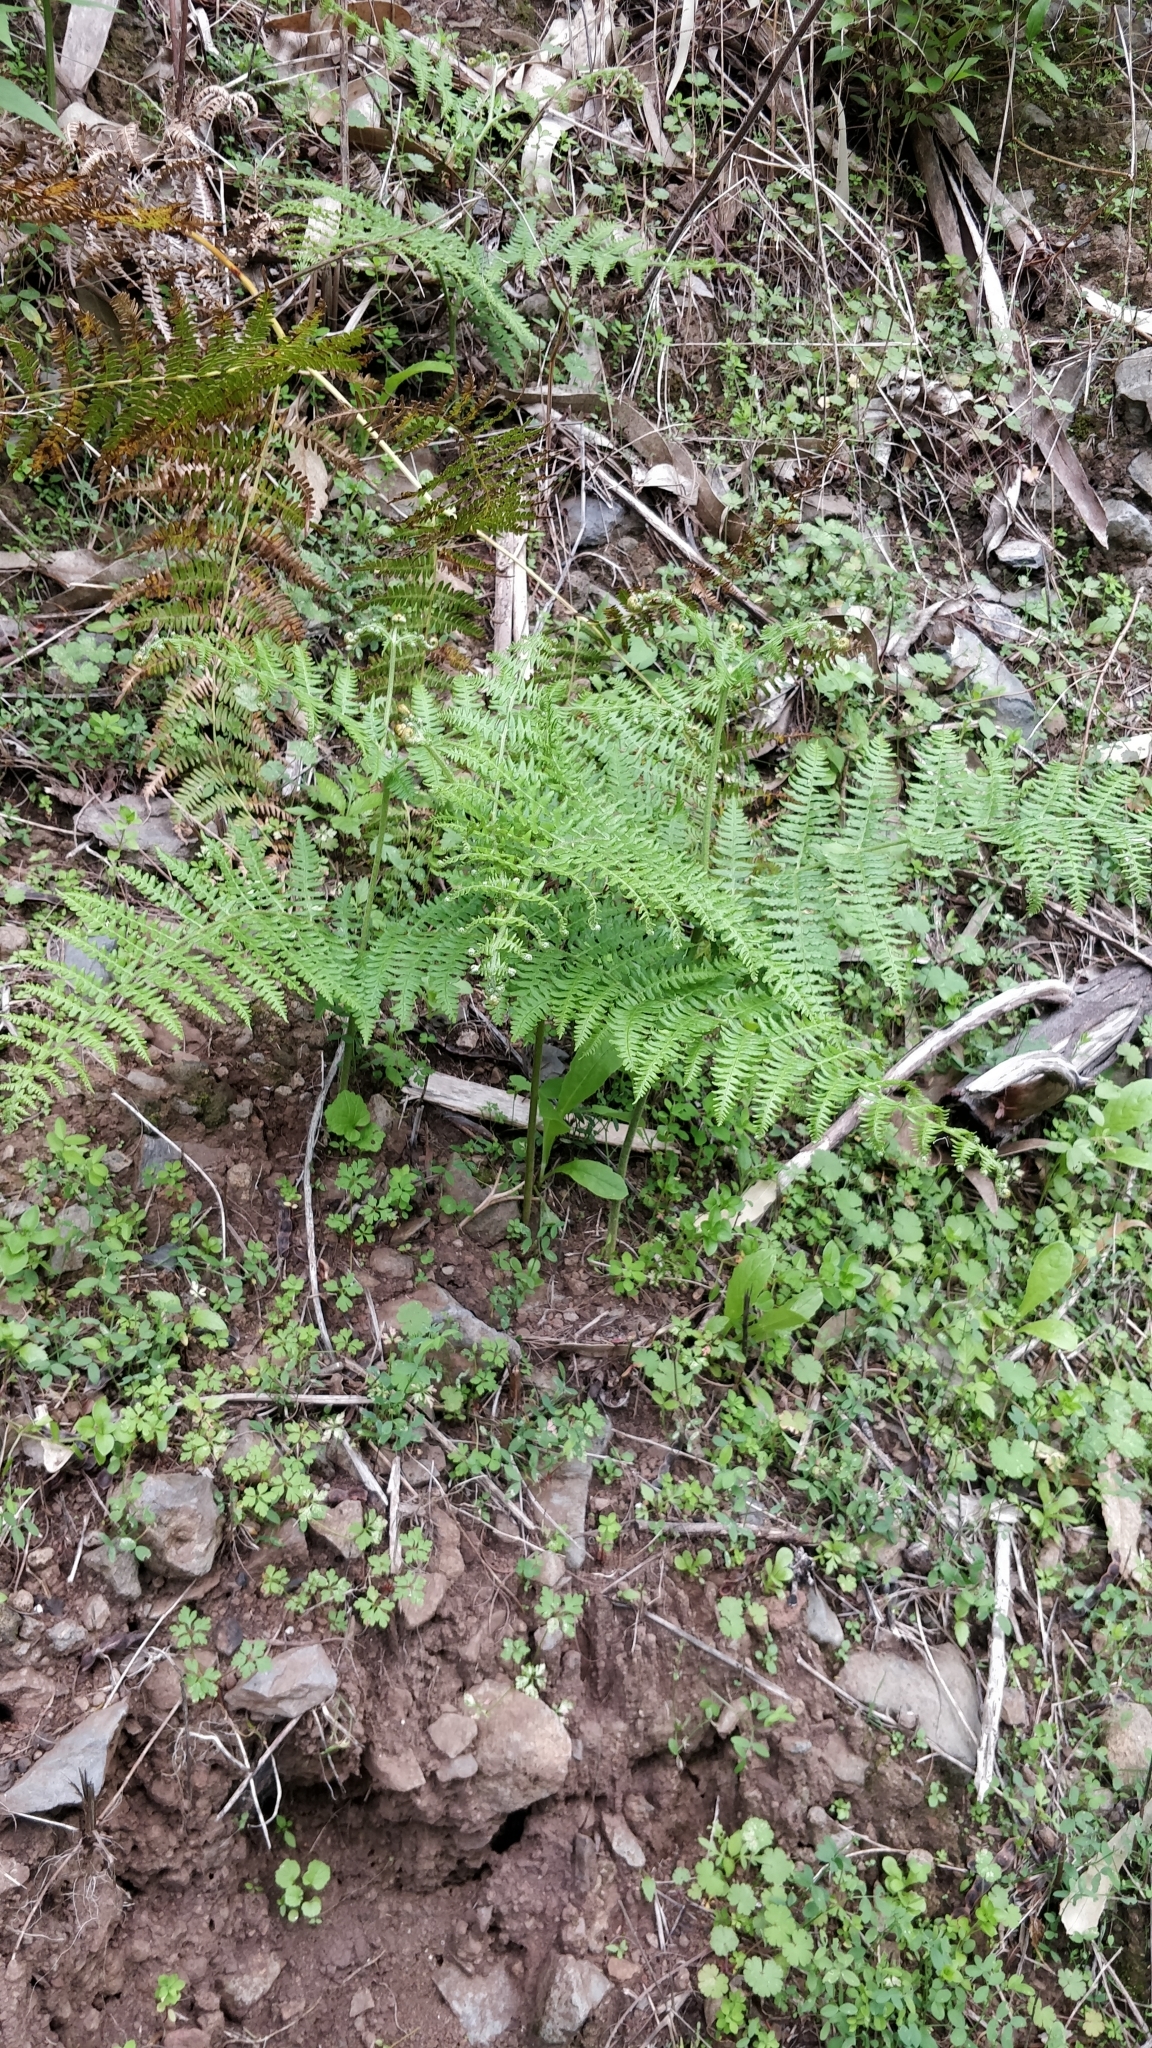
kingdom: Plantae
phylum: Tracheophyta
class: Polypodiopsida
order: Polypodiales
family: Dennstaedtiaceae
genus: Pteridium
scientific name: Pteridium aquilinum
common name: Bracken
